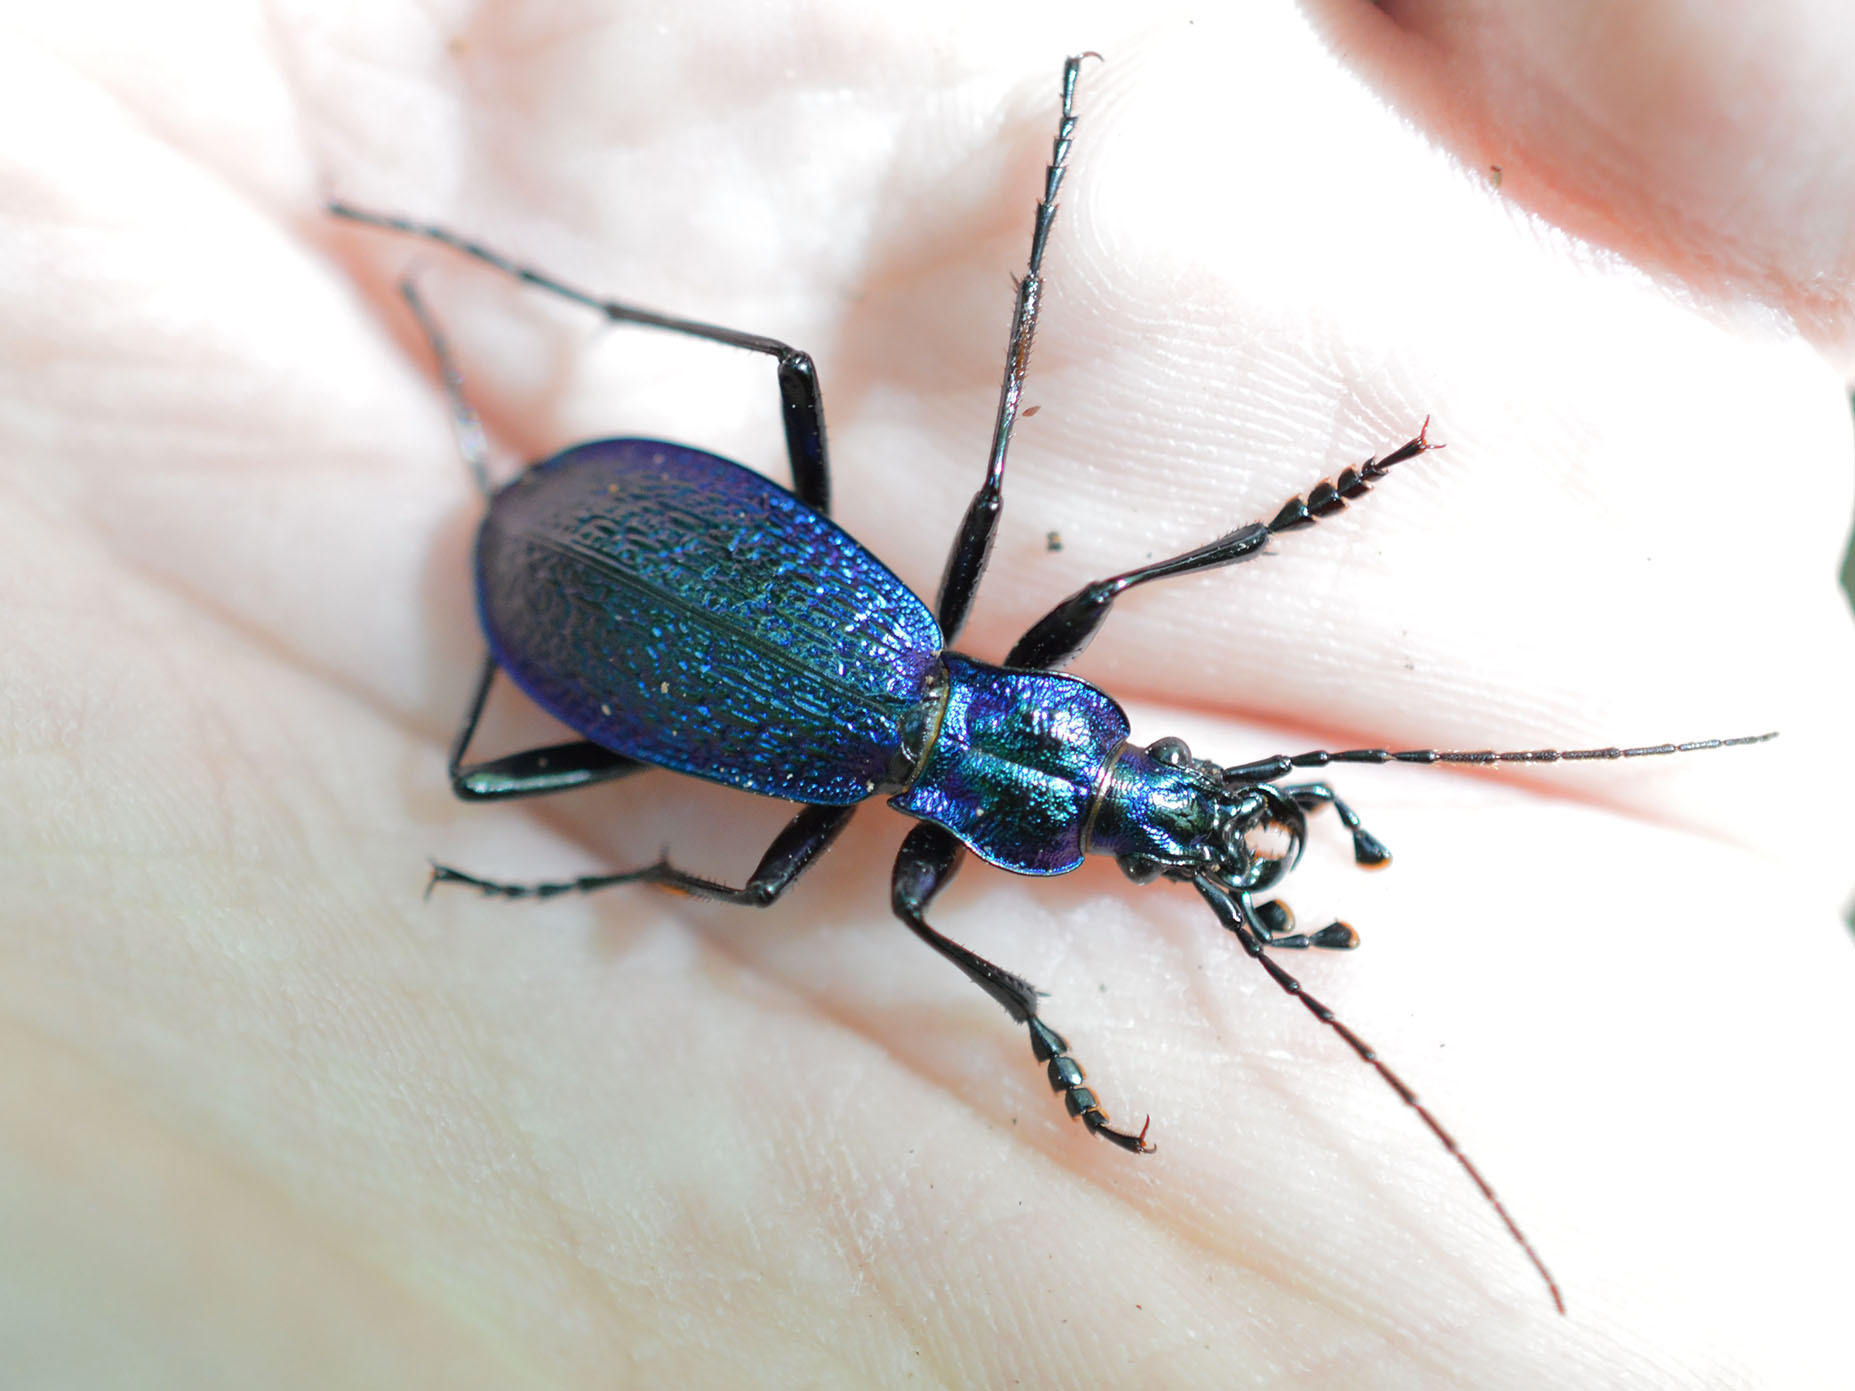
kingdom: Animalia
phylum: Arthropoda
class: Insecta
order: Coleoptera
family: Carabidae
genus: Carabus
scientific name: Carabus intricatus
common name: Blue ground beetle
